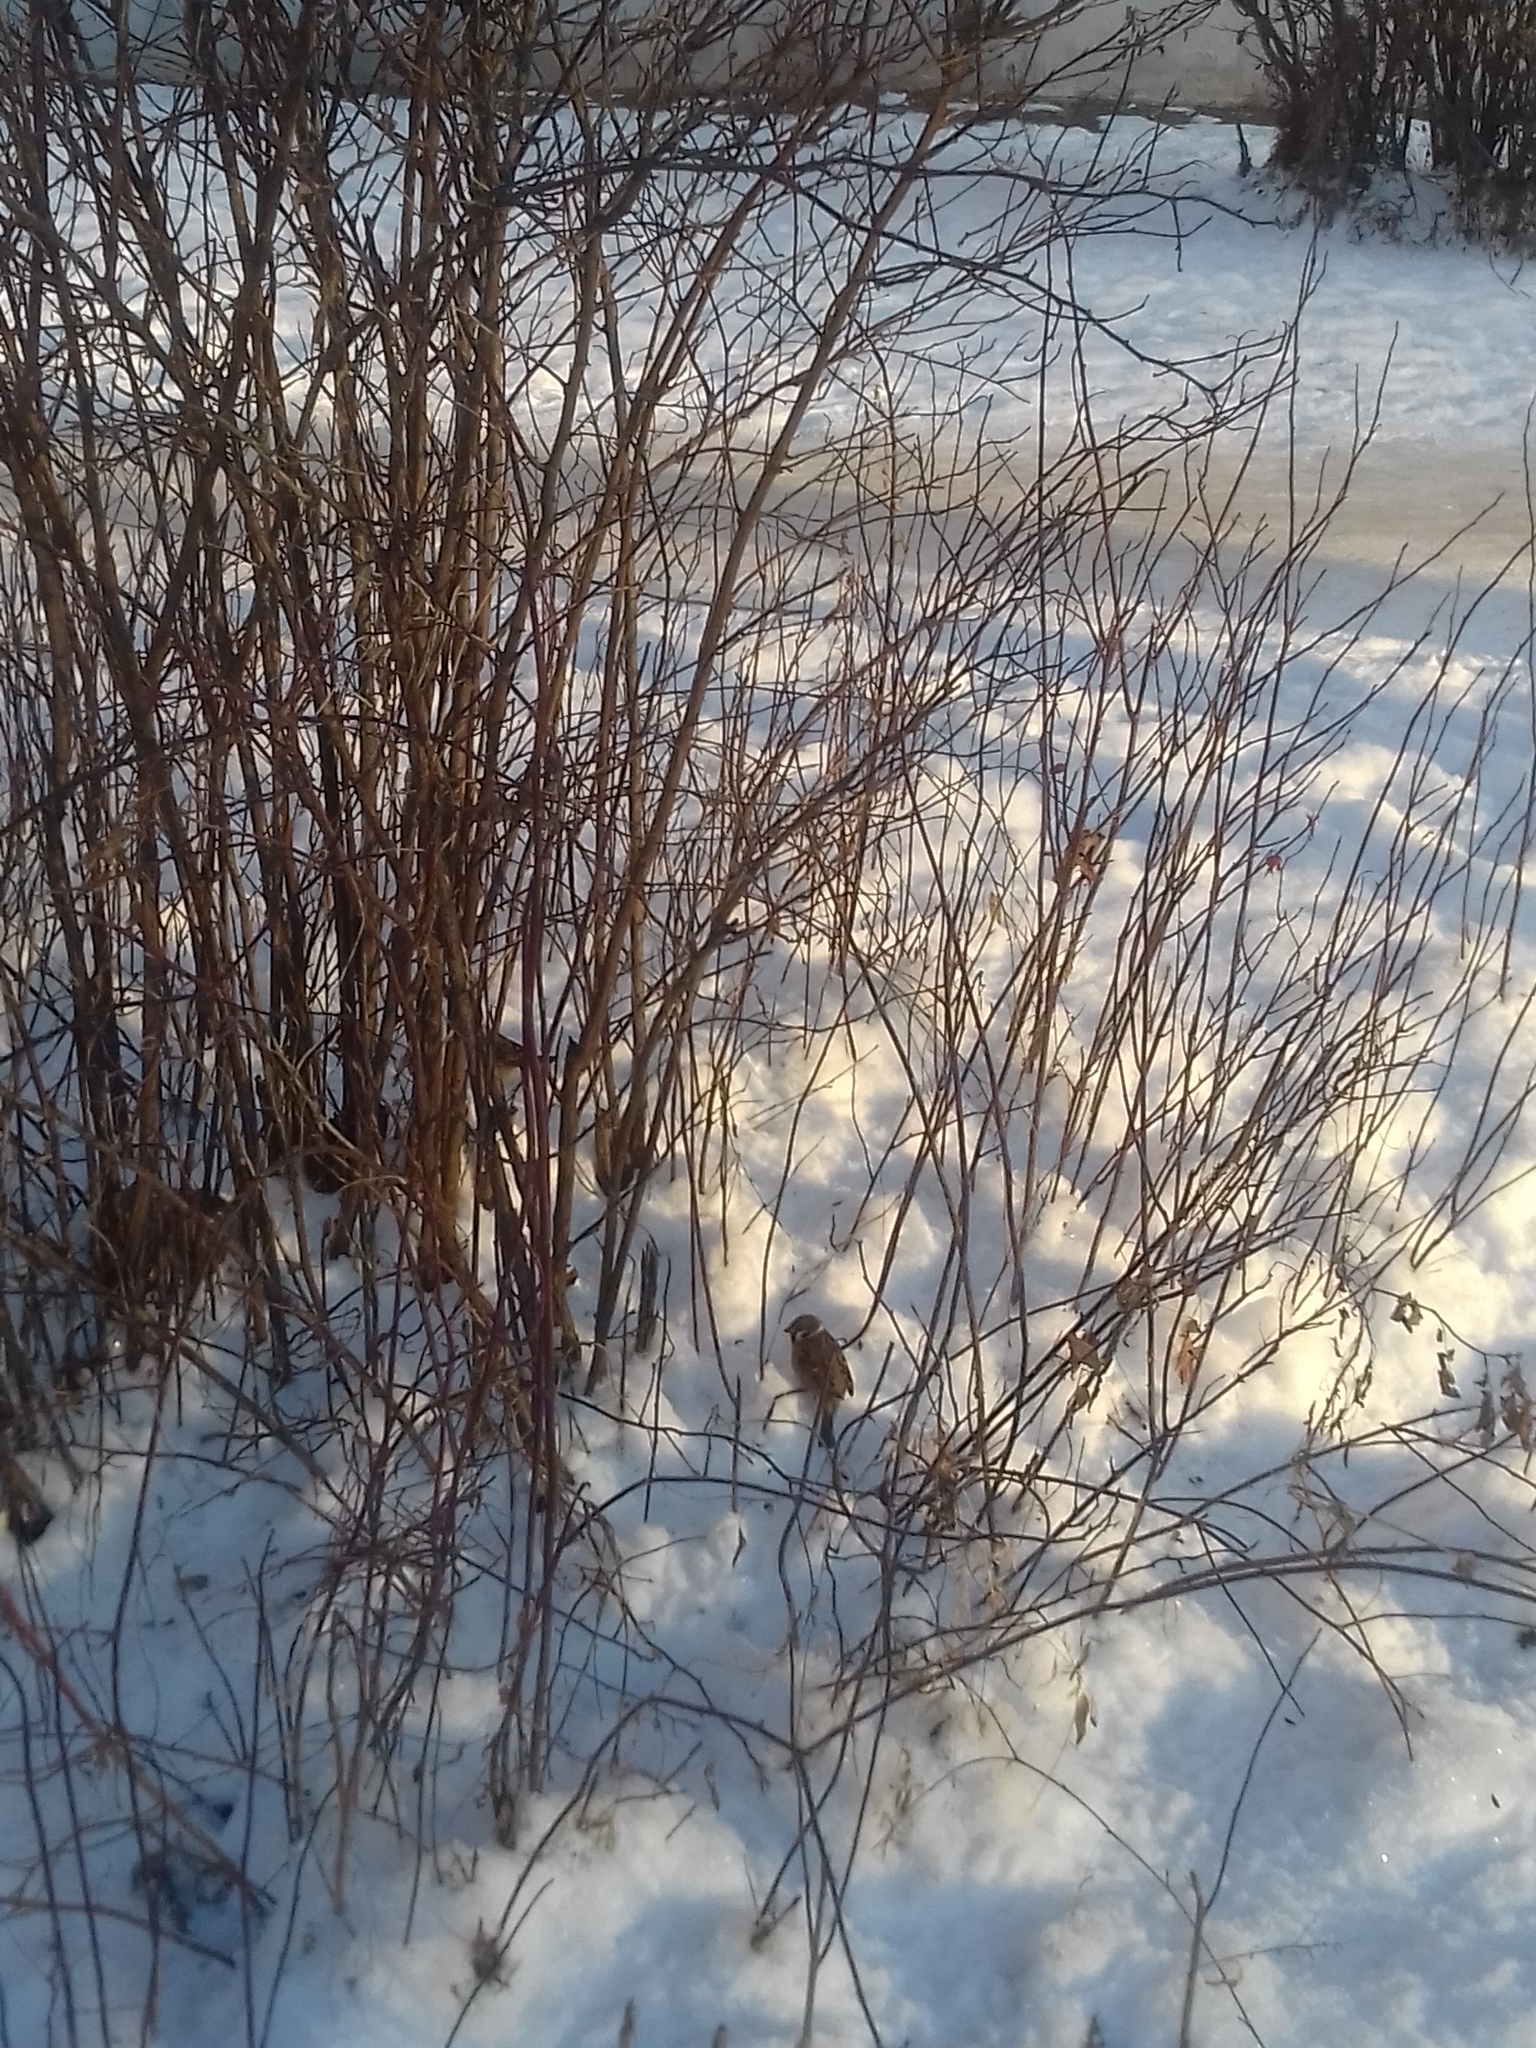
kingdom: Animalia
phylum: Chordata
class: Aves
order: Passeriformes
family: Passeridae
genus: Passer
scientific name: Passer montanus
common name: Eurasian tree sparrow
